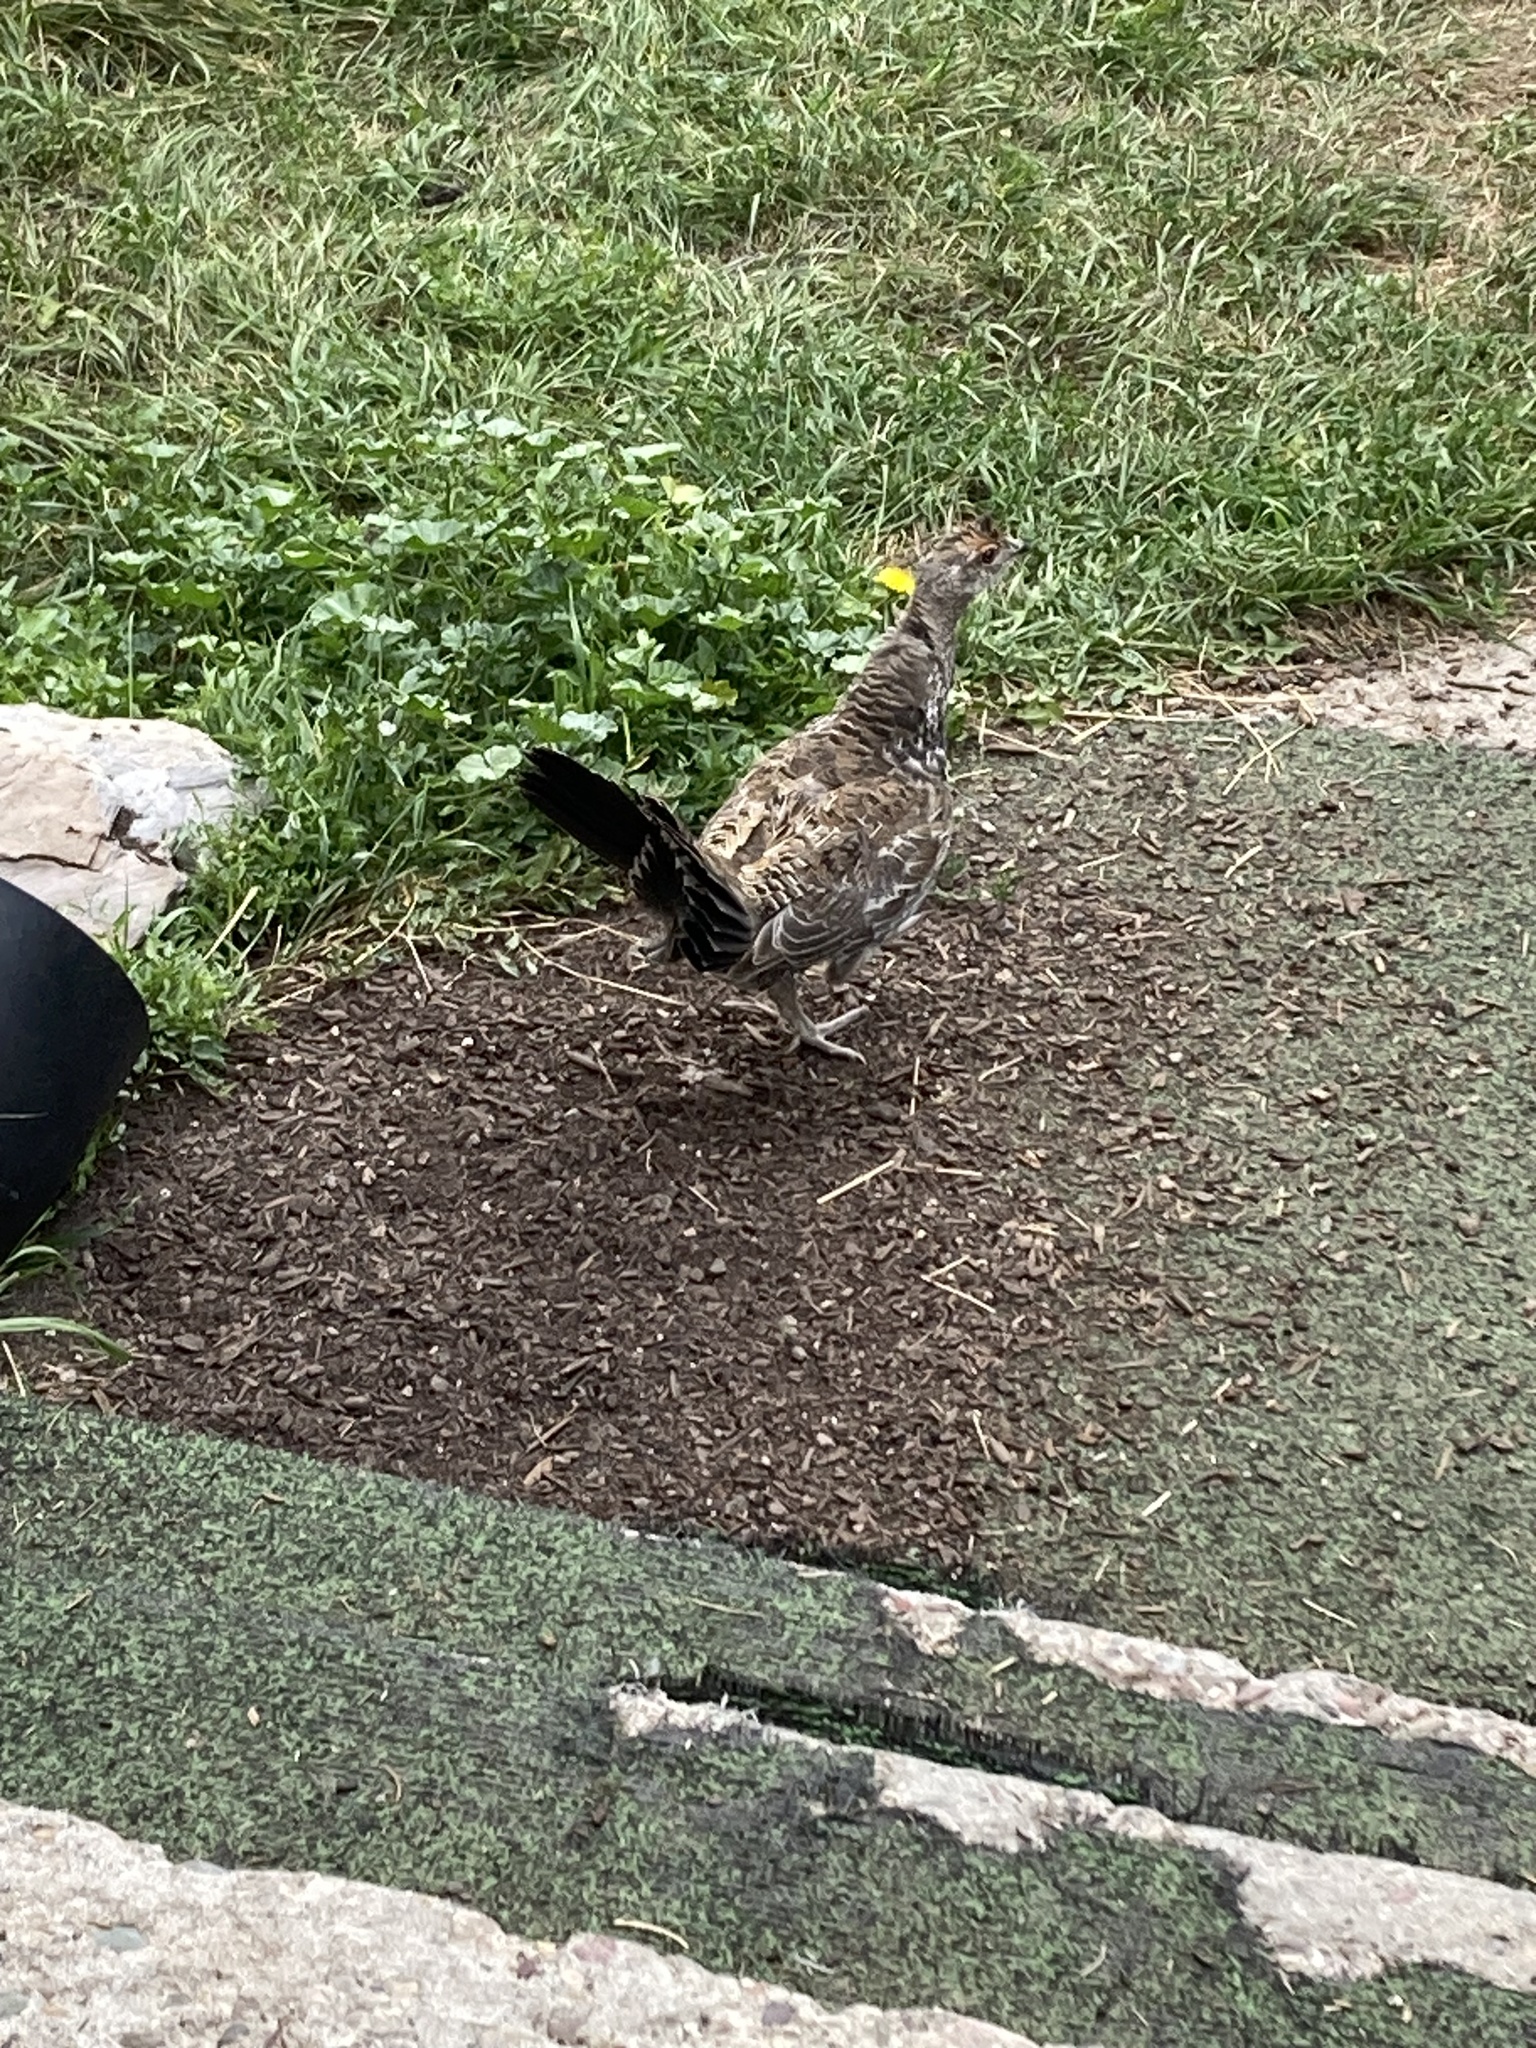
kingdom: Animalia
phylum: Chordata
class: Aves
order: Galliformes
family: Phasianidae
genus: Dendragapus
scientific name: Dendragapus obscurus
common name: Dusky grouse
